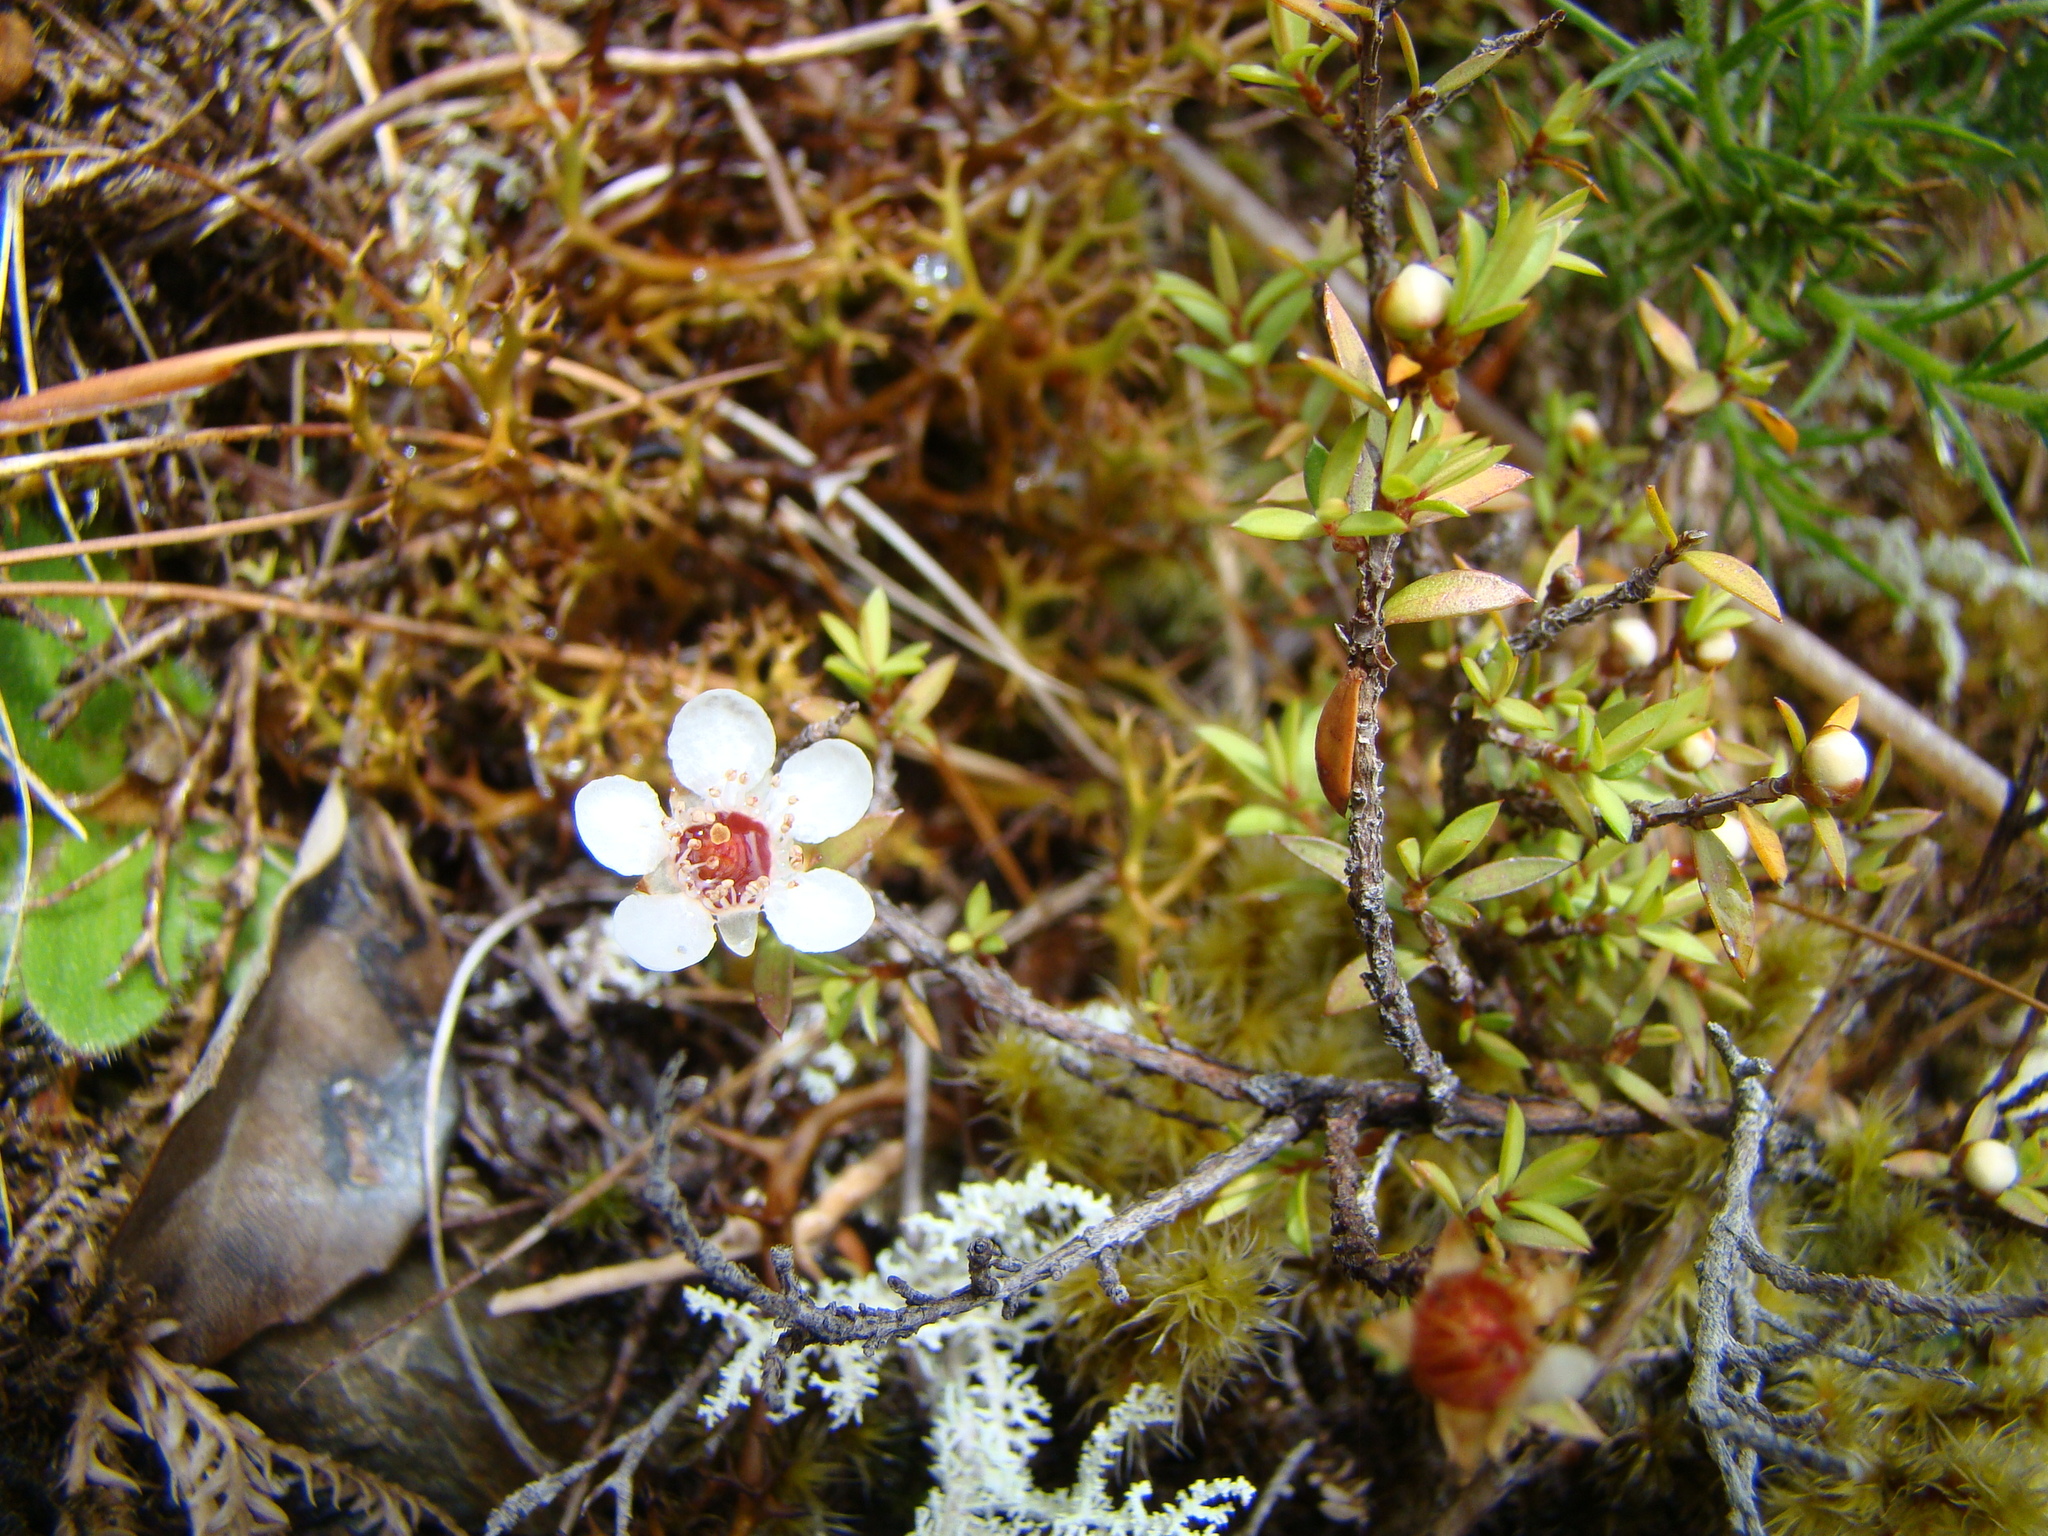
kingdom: Plantae
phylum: Tracheophyta
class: Magnoliopsida
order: Myrtales
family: Myrtaceae
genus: Leptospermum
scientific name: Leptospermum scoparium
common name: Broom tea-tree
